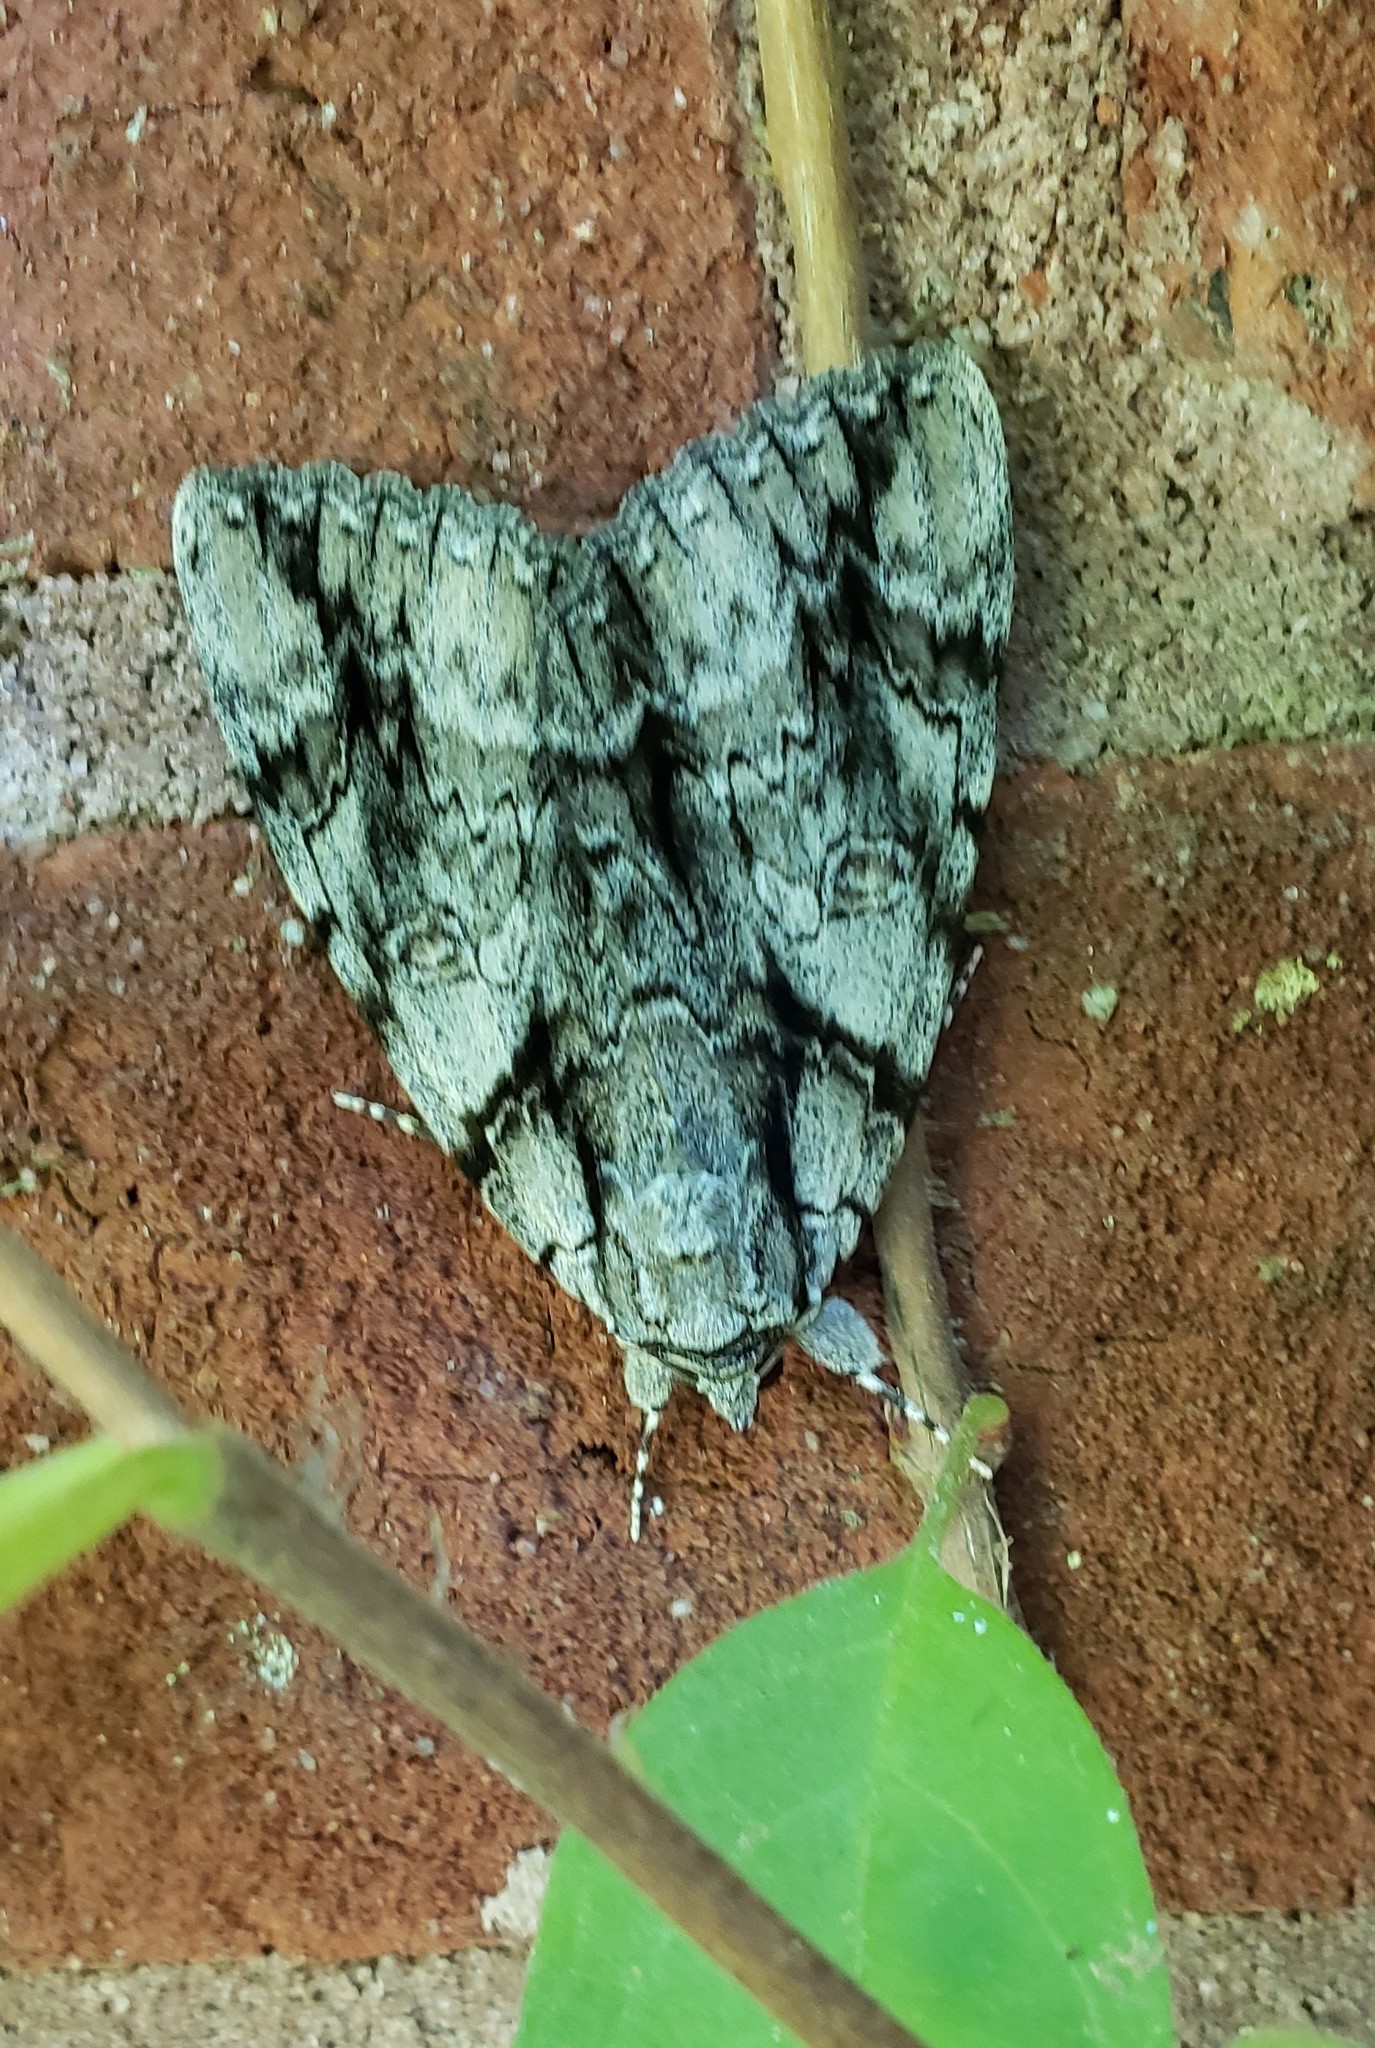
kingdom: Animalia
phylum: Arthropoda
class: Insecta
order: Lepidoptera
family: Erebidae
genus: Catocala
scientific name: Catocala vidua
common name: The widow
